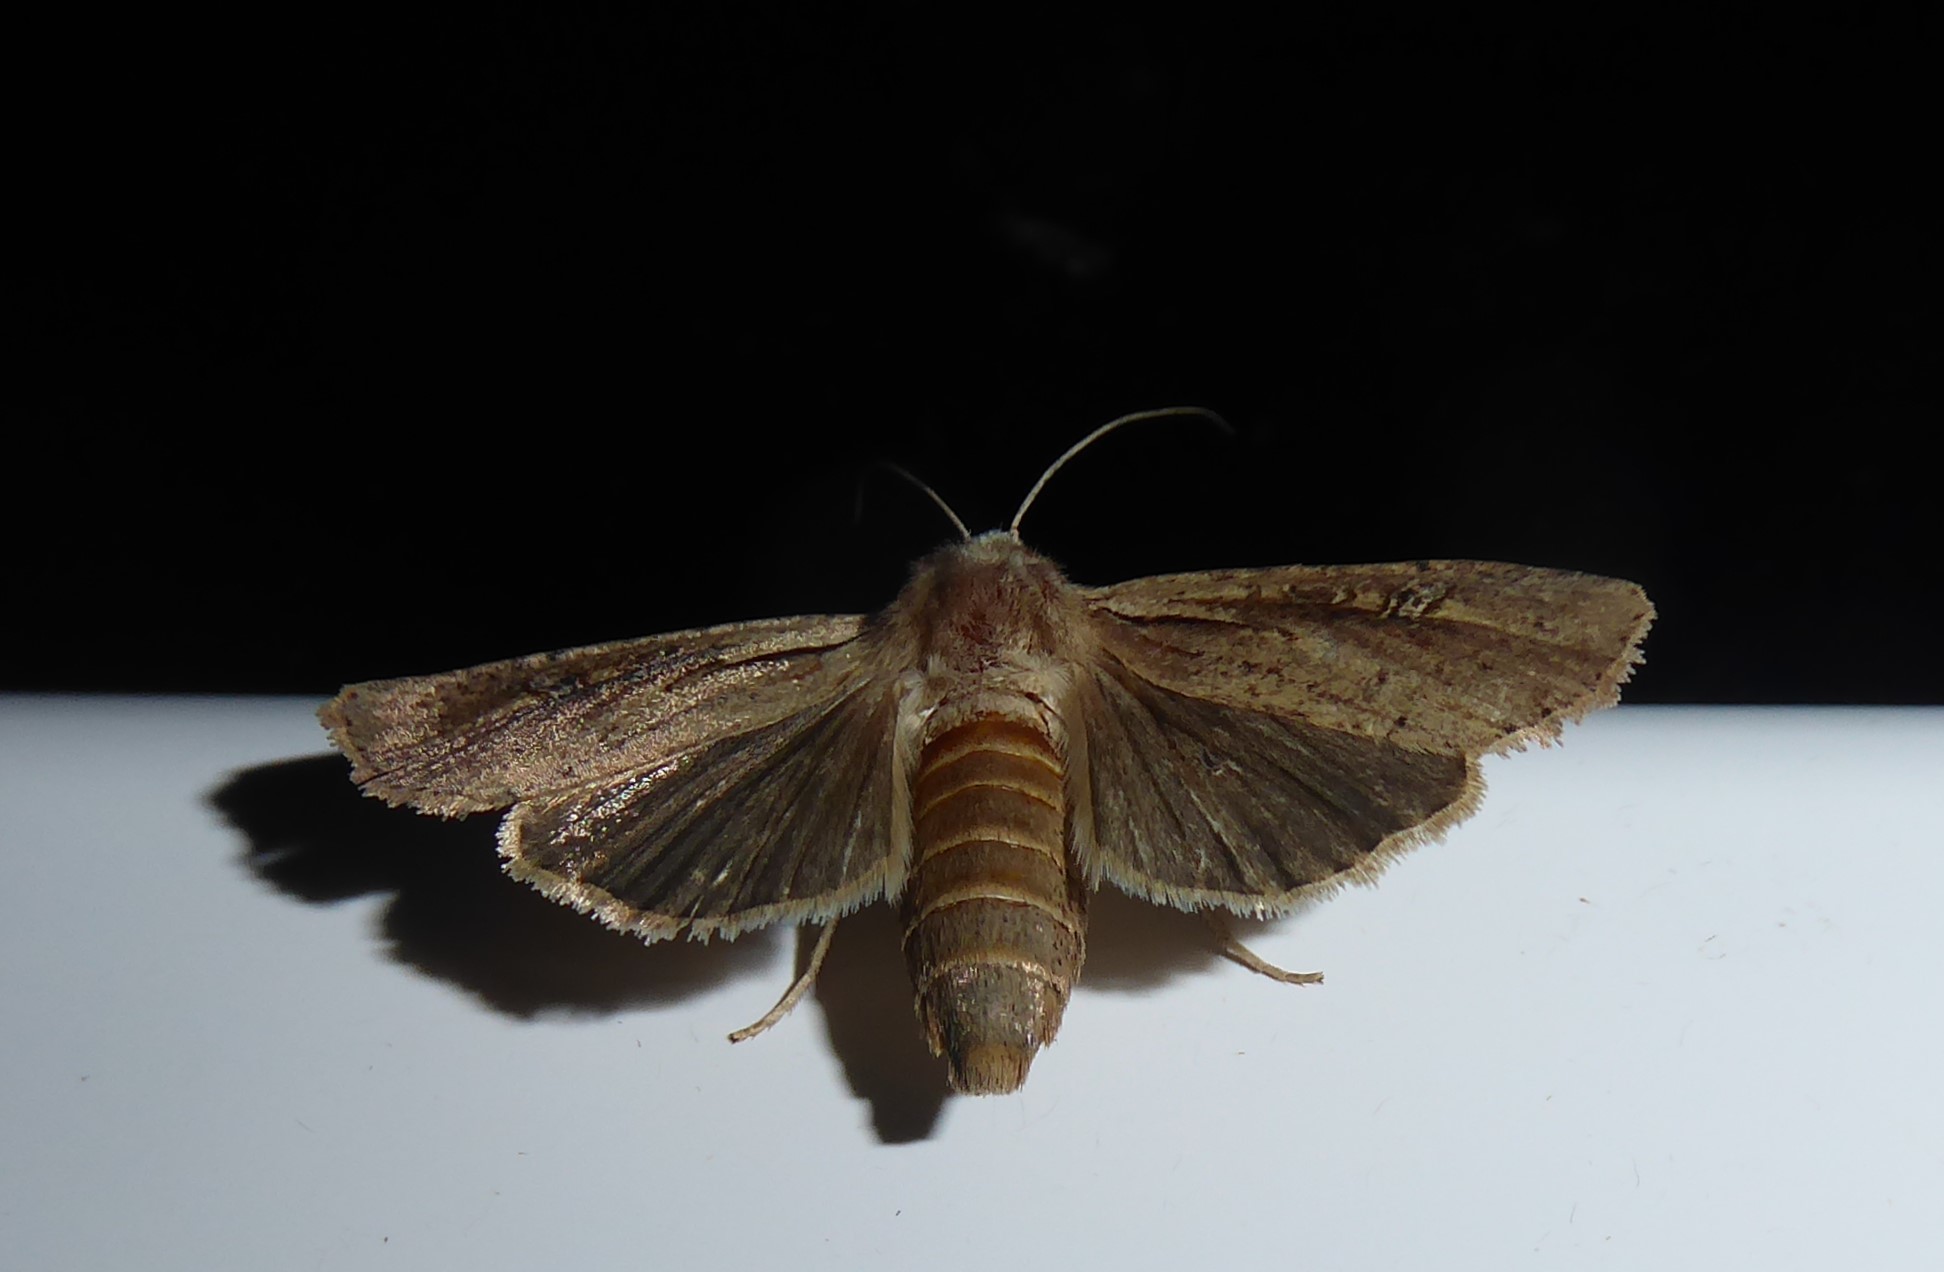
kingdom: Animalia
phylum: Arthropoda
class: Insecta
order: Lepidoptera
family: Noctuidae
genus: Ichneutica
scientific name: Ichneutica atristriga
